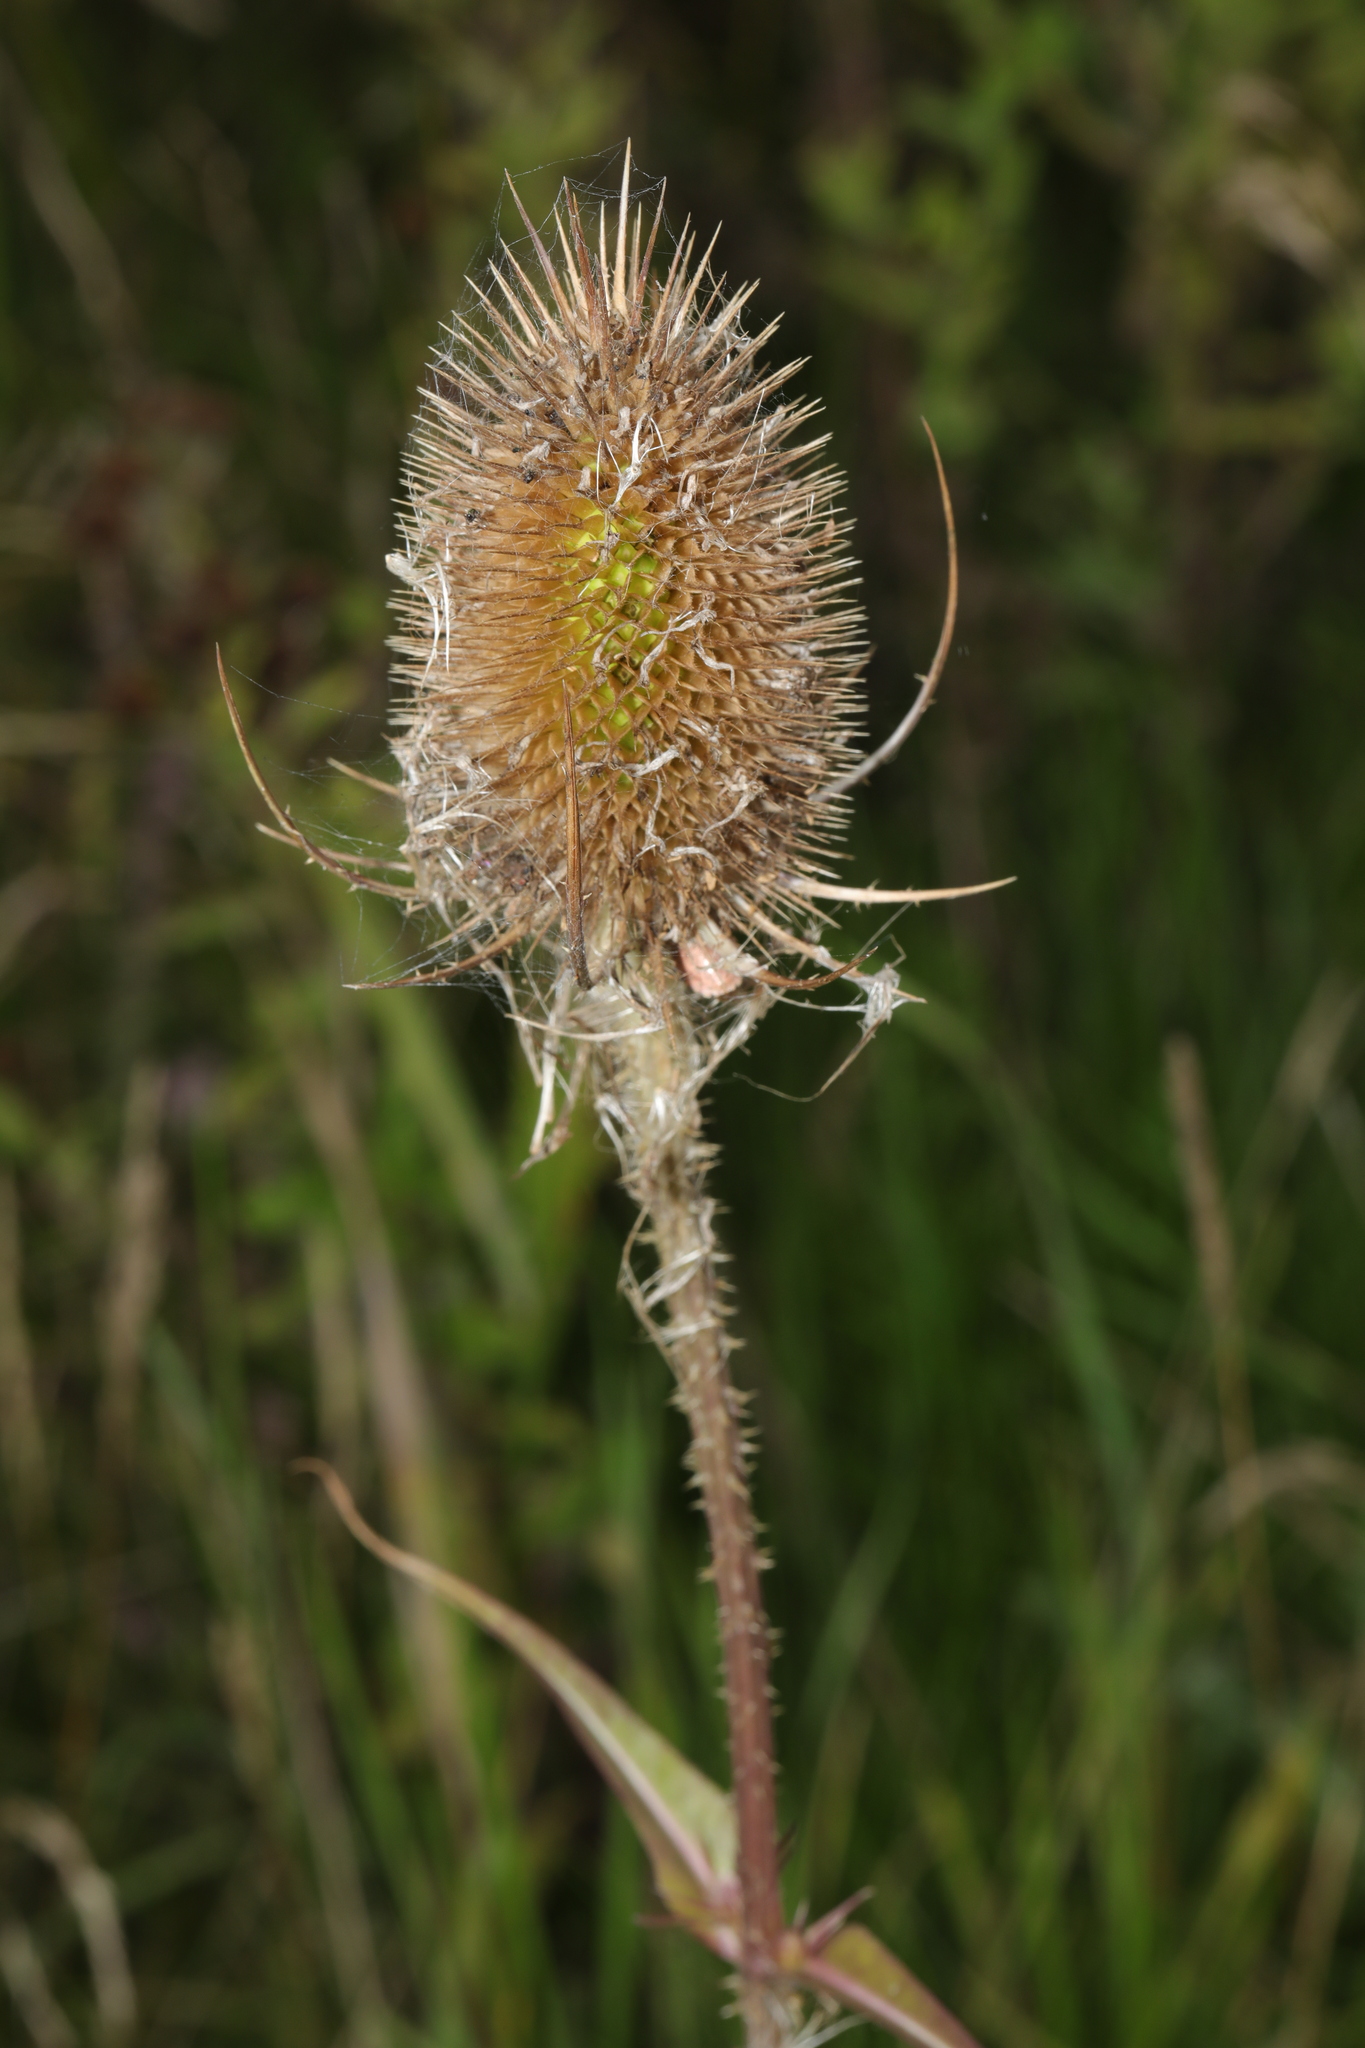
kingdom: Plantae
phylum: Tracheophyta
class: Magnoliopsida
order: Dipsacales
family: Caprifoliaceae
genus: Dipsacus
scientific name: Dipsacus fullonum
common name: Teasel
